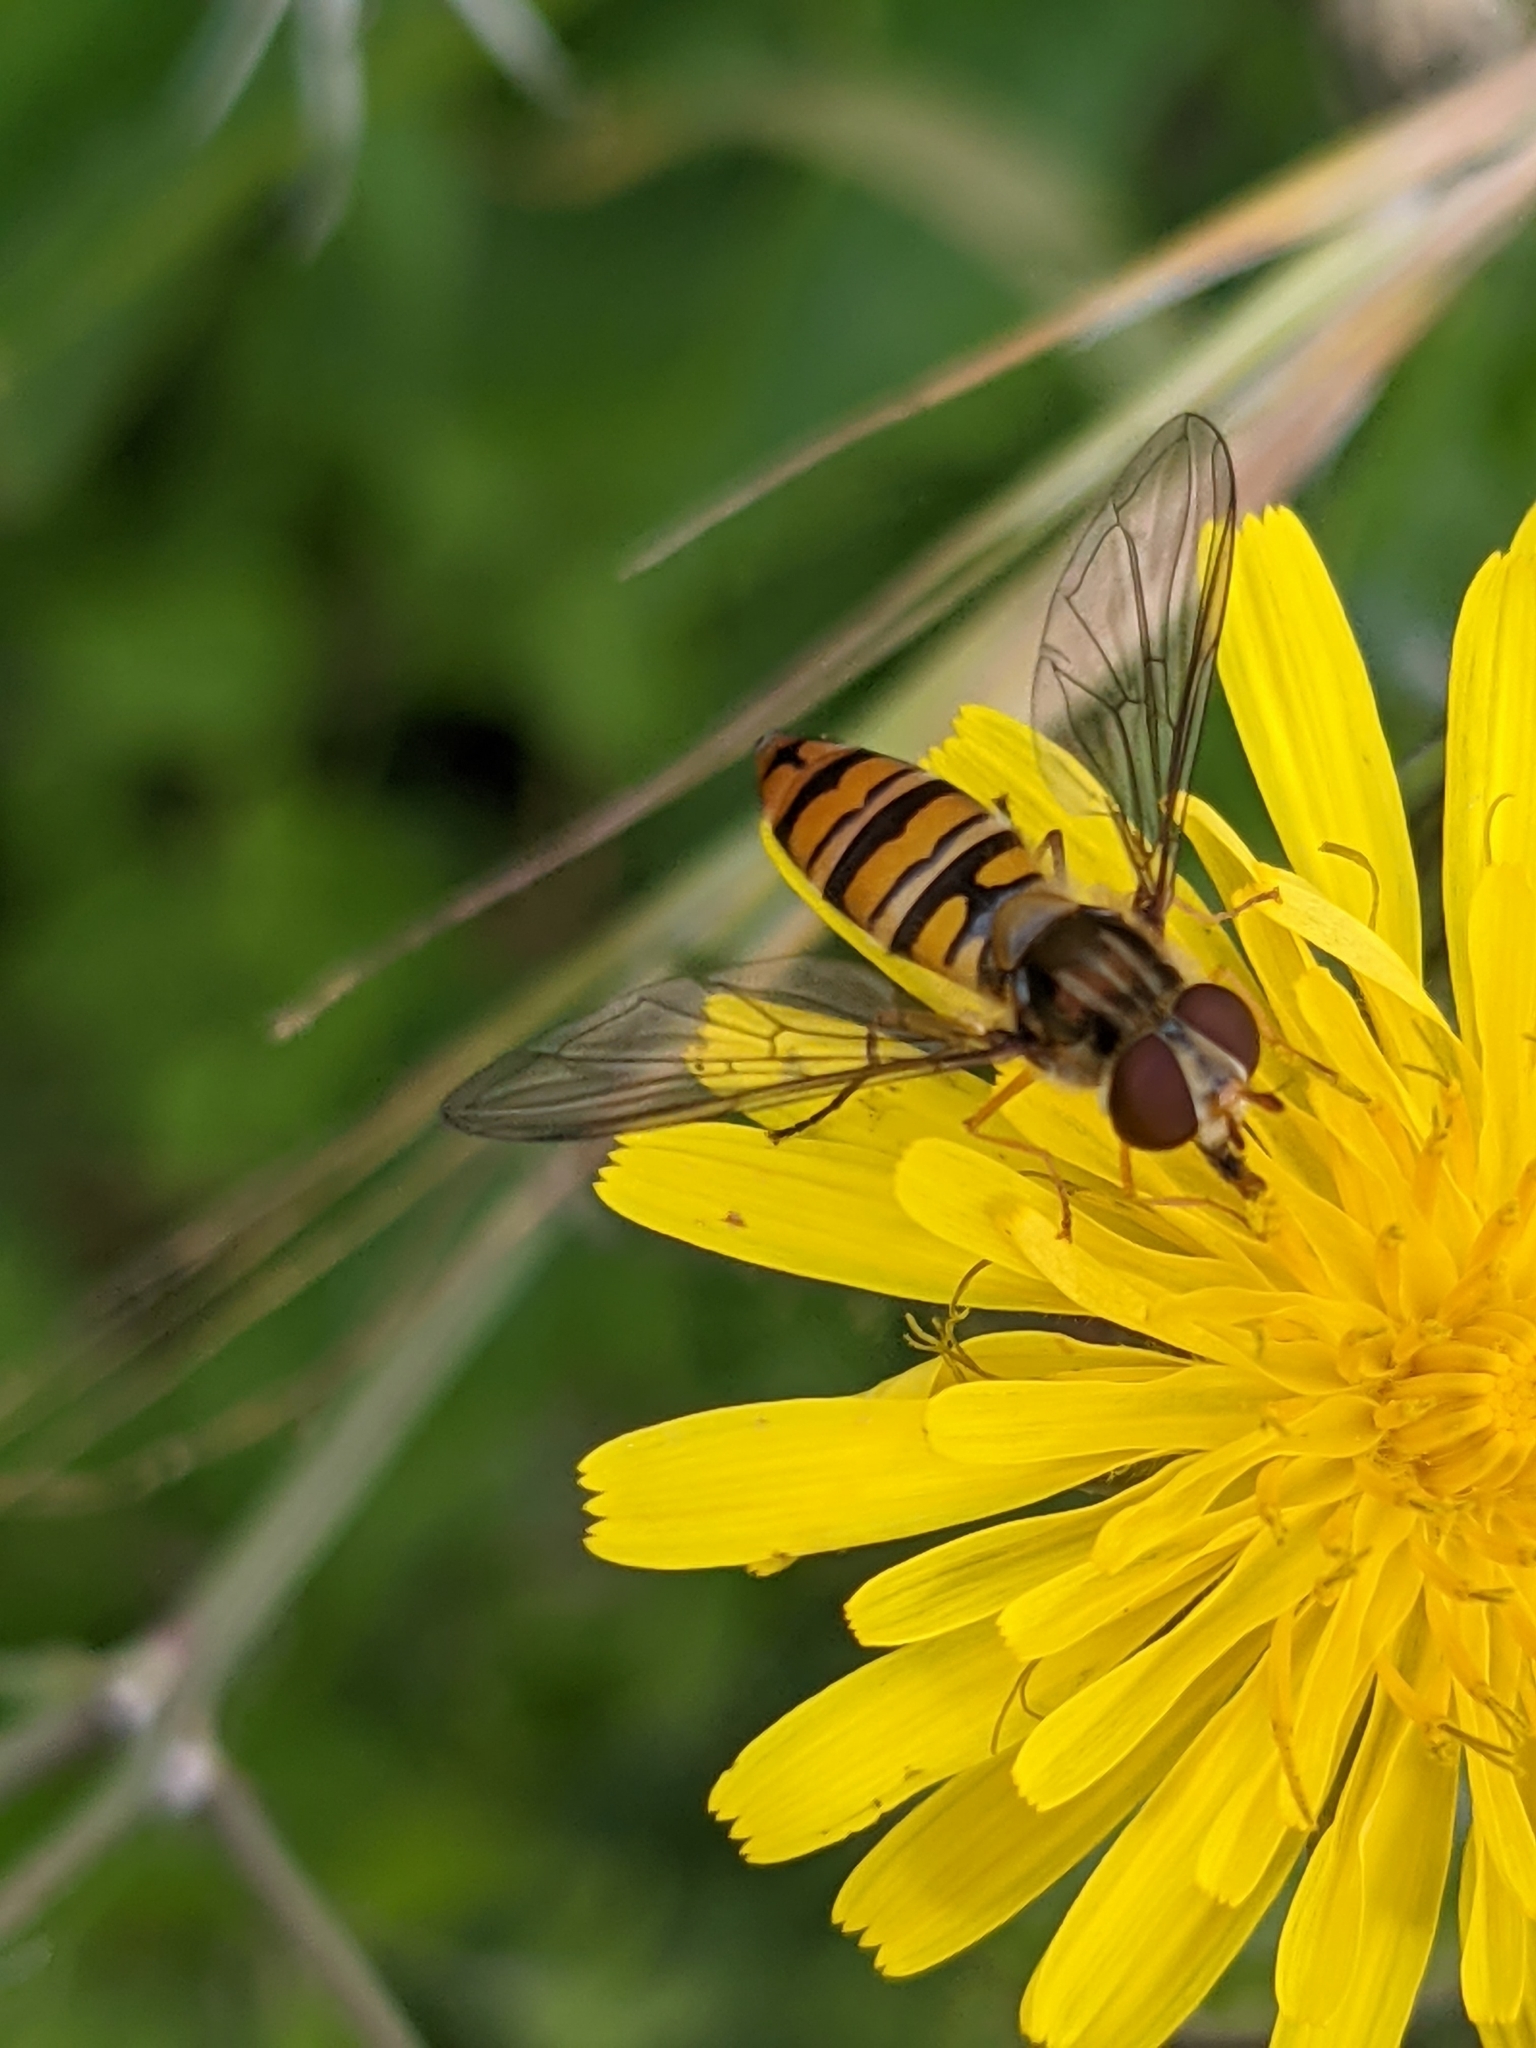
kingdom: Animalia
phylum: Arthropoda
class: Insecta
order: Diptera
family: Syrphidae
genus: Episyrphus
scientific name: Episyrphus balteatus
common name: Marmalade hoverfly
